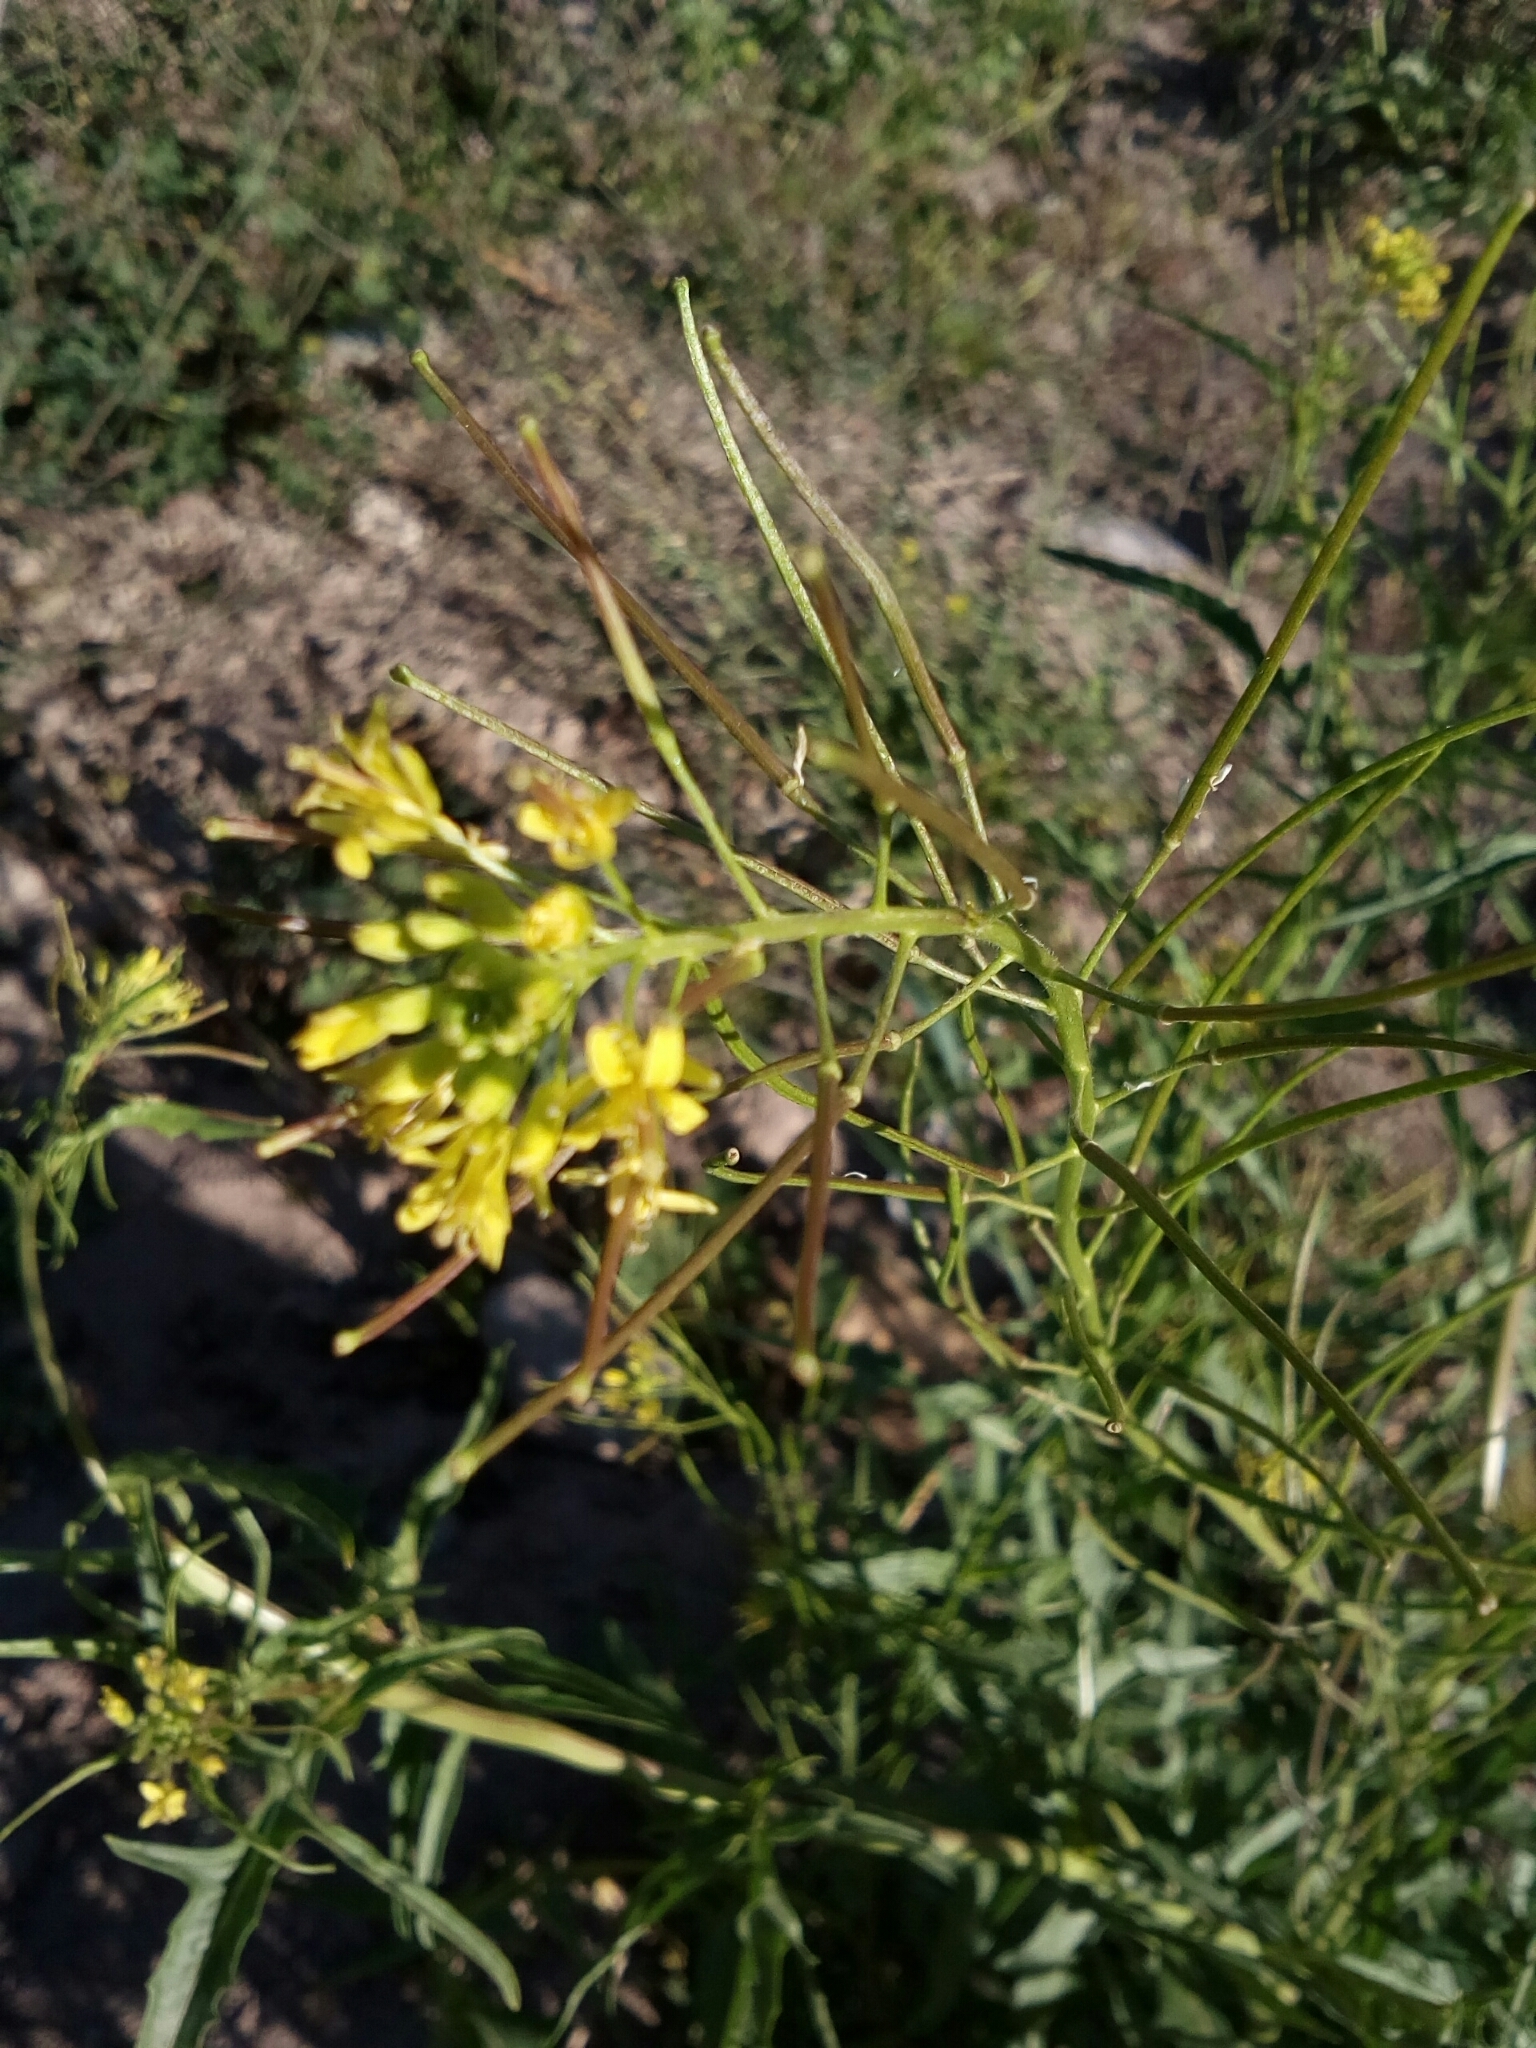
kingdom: Plantae
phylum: Tracheophyta
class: Magnoliopsida
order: Brassicales
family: Brassicaceae
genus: Sisymbrium
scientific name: Sisymbrium irio
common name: London rocket
